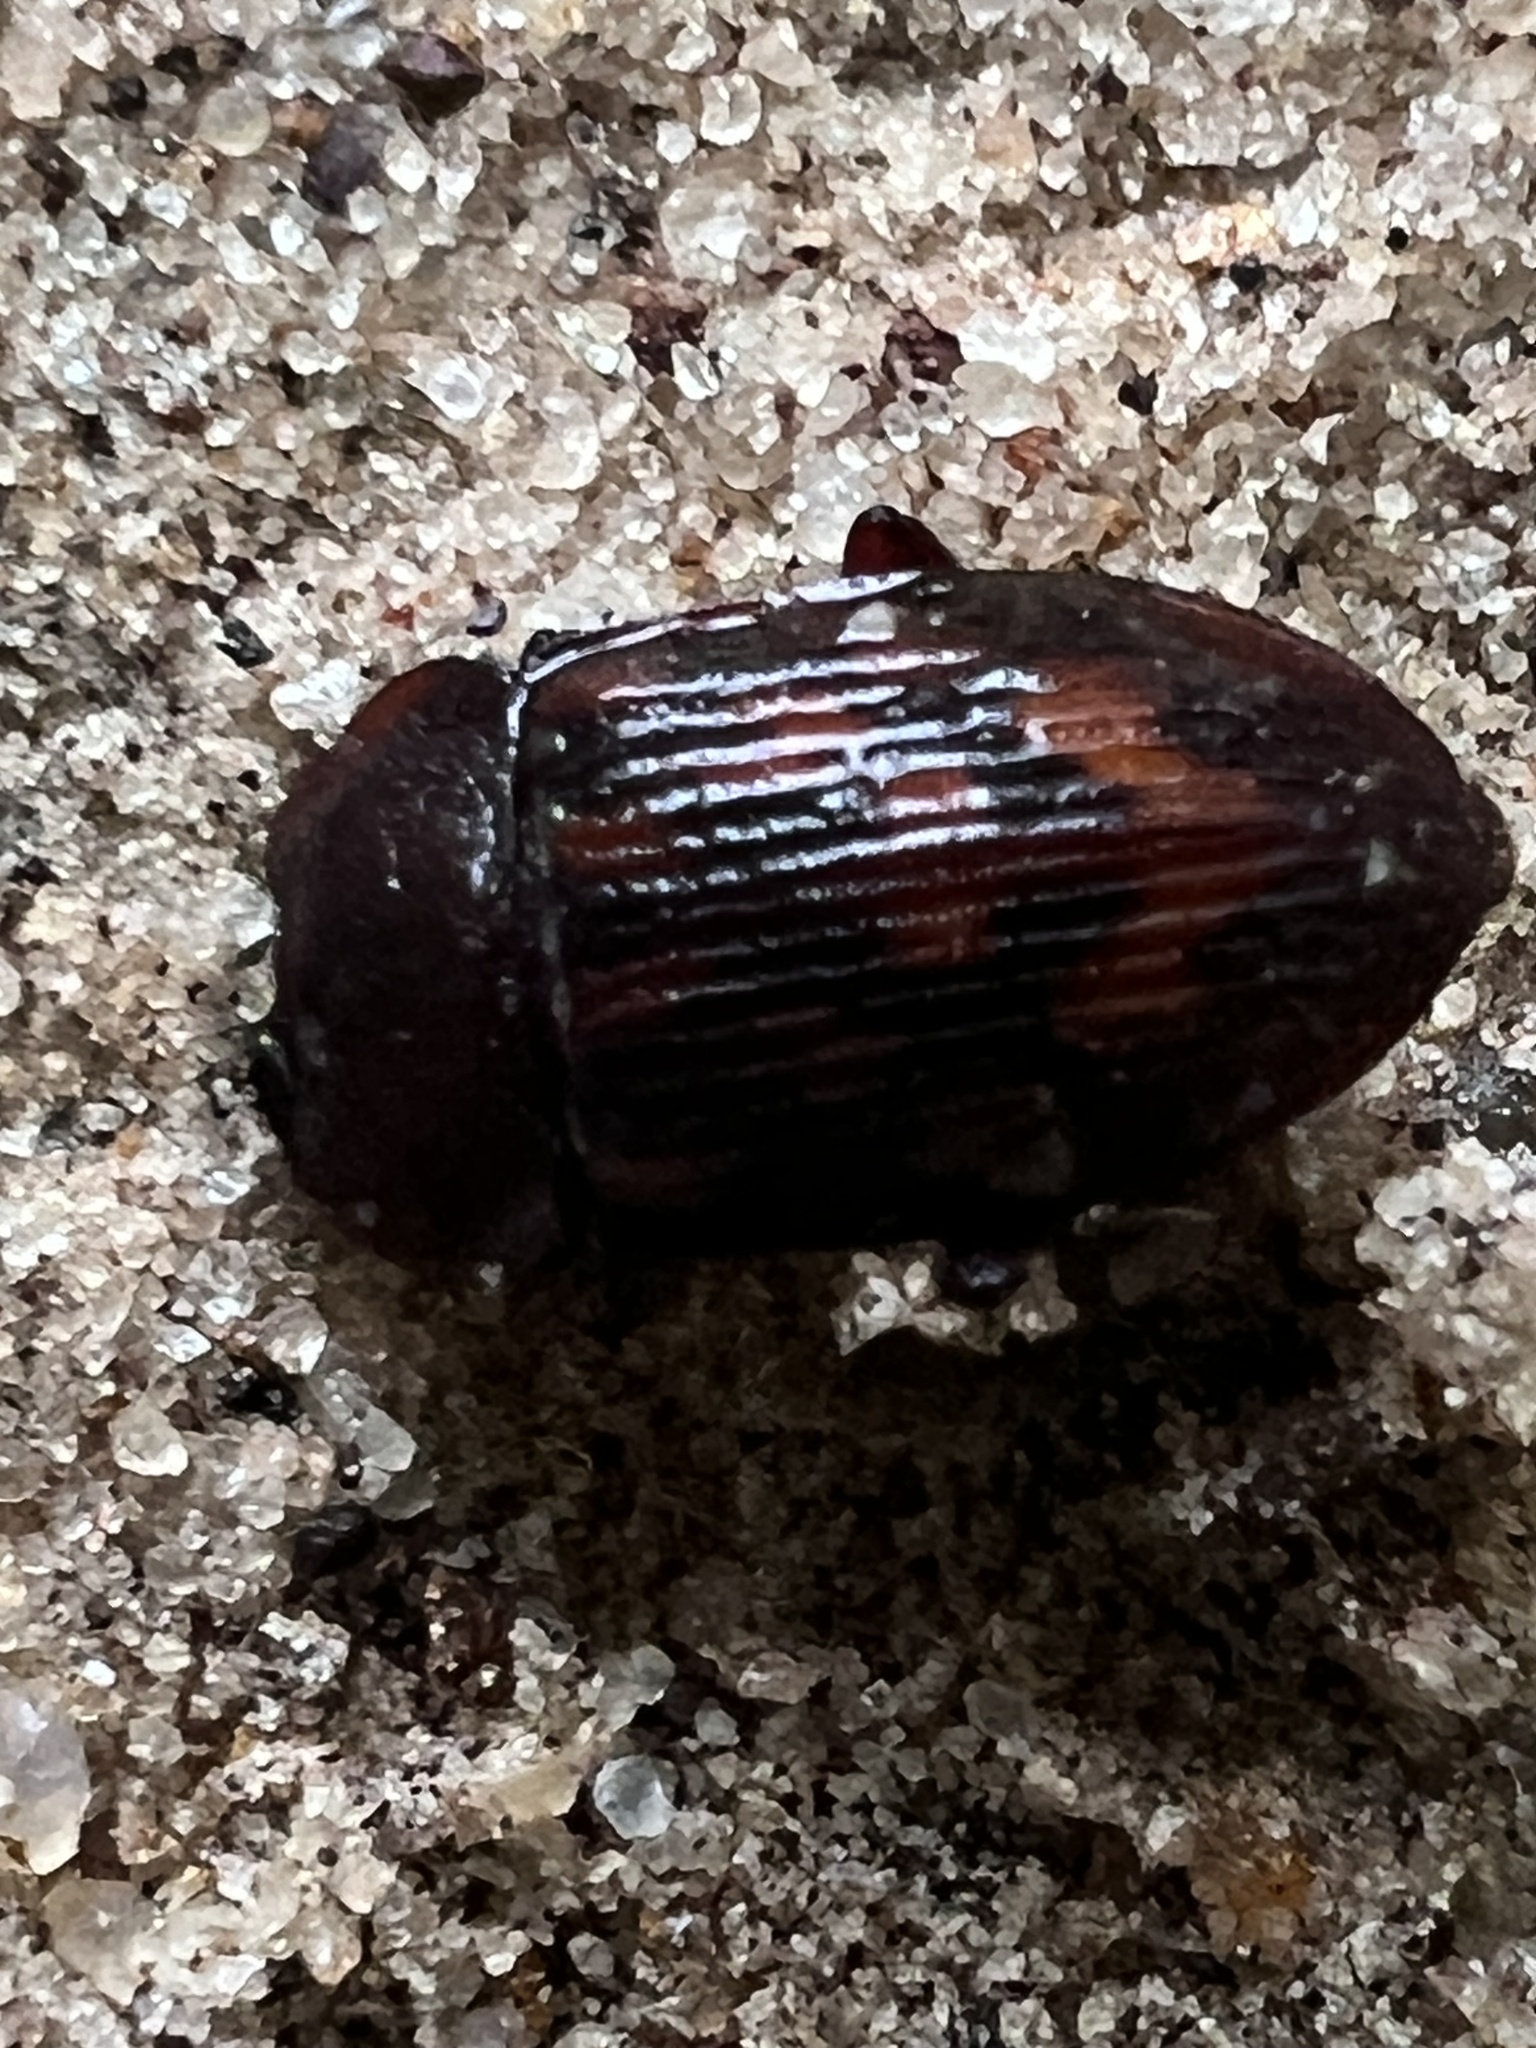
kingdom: Animalia
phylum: Arthropoda
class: Insecta
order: Coleoptera
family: Nitidulidae
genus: Phenolia
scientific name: Phenolia grossa
